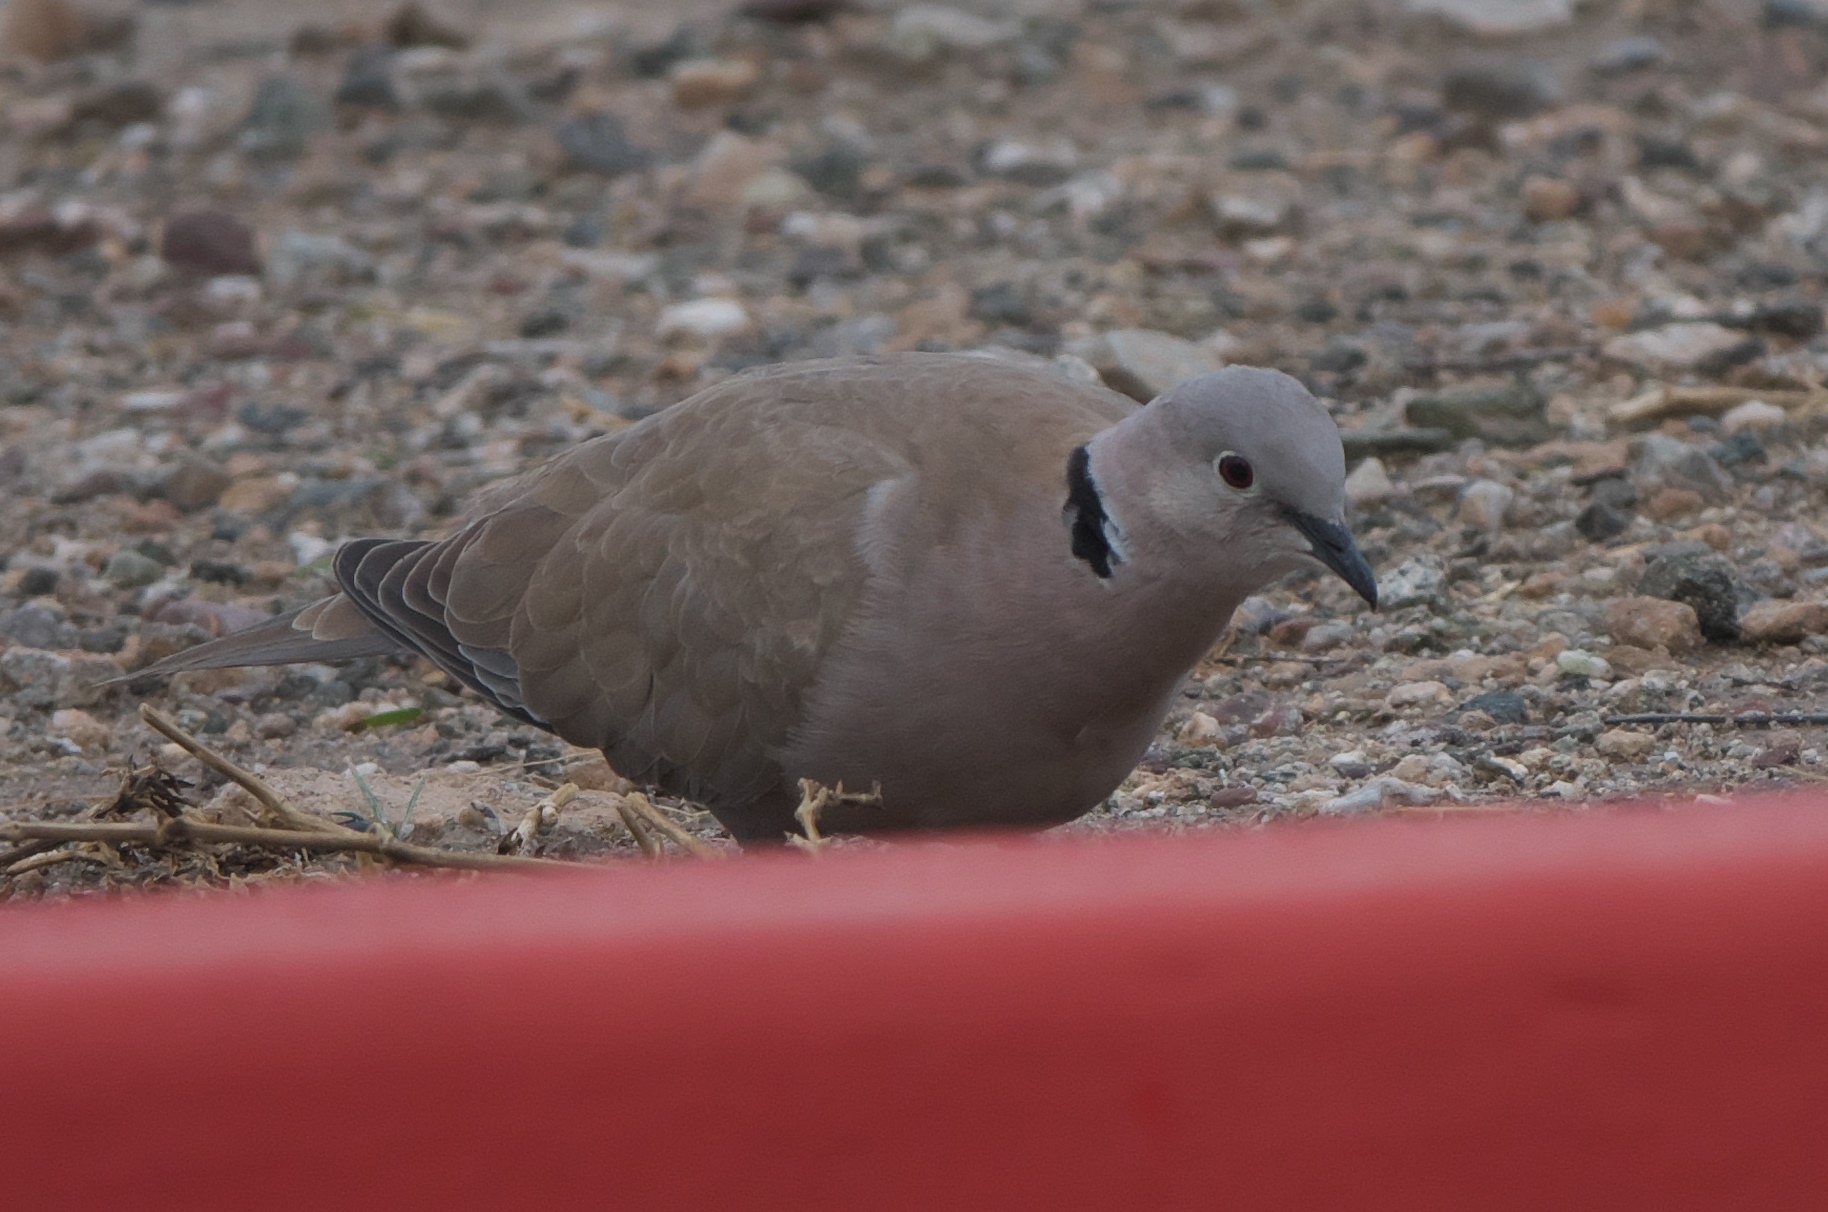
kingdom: Animalia
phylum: Chordata
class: Aves
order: Columbiformes
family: Columbidae
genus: Streptopelia
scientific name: Streptopelia decaocto
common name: Eurasian collared dove
